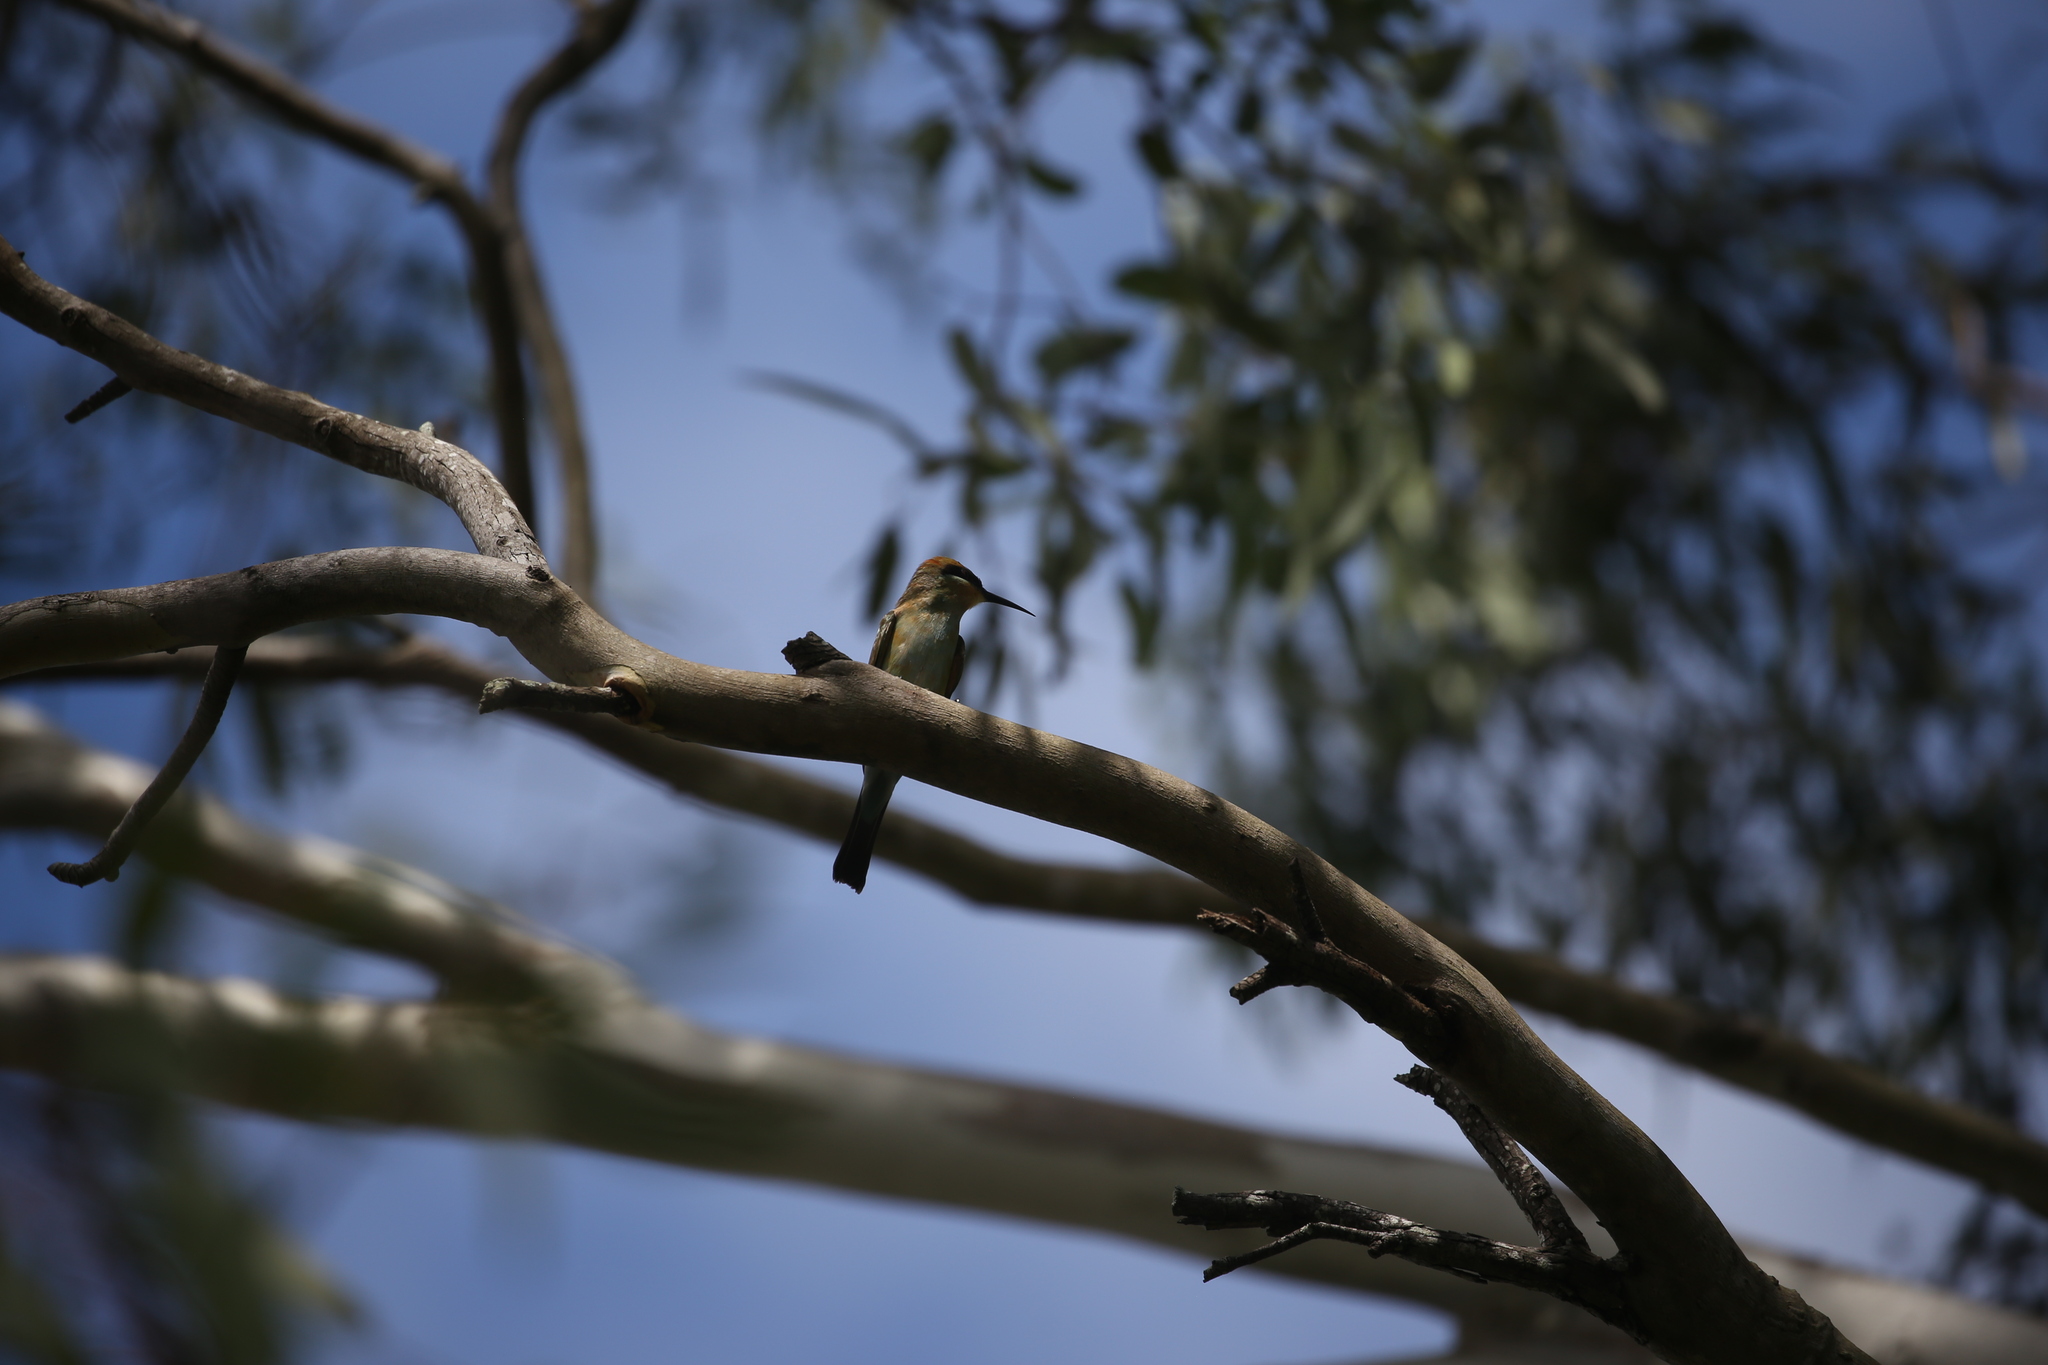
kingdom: Animalia
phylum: Chordata
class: Aves
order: Coraciiformes
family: Meropidae
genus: Merops
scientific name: Merops ornatus
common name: Rainbow bee-eater
